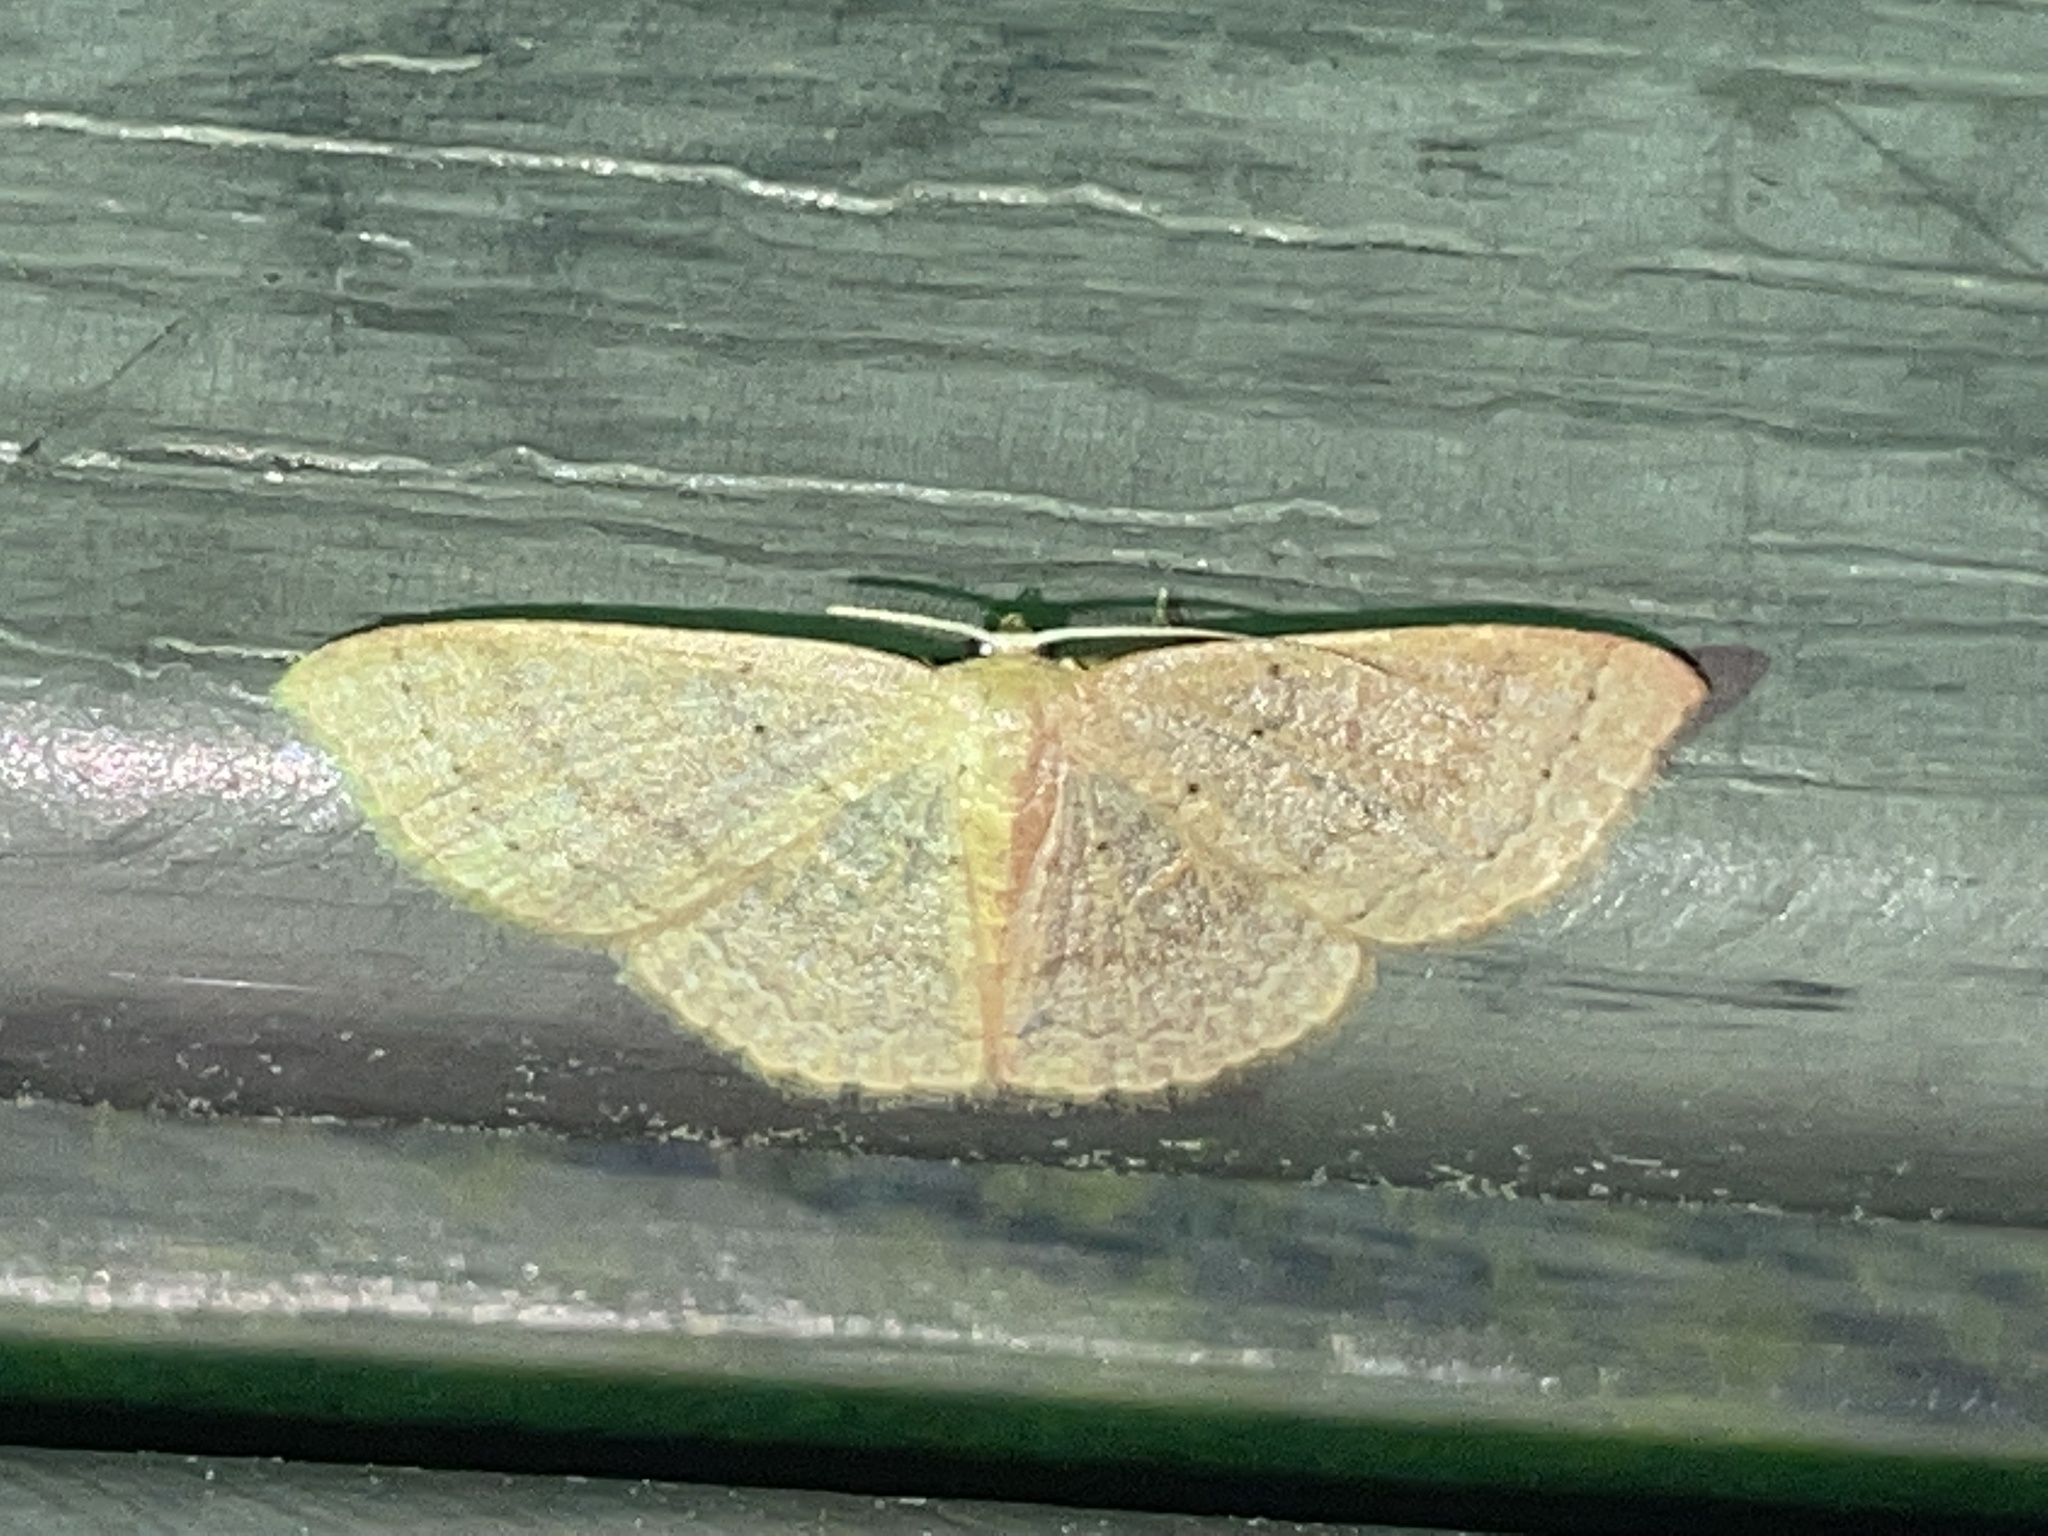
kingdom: Animalia
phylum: Arthropoda
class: Insecta
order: Lepidoptera
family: Geometridae
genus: Pleuroprucha
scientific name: Pleuroprucha insulsaria
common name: Common tan wave
